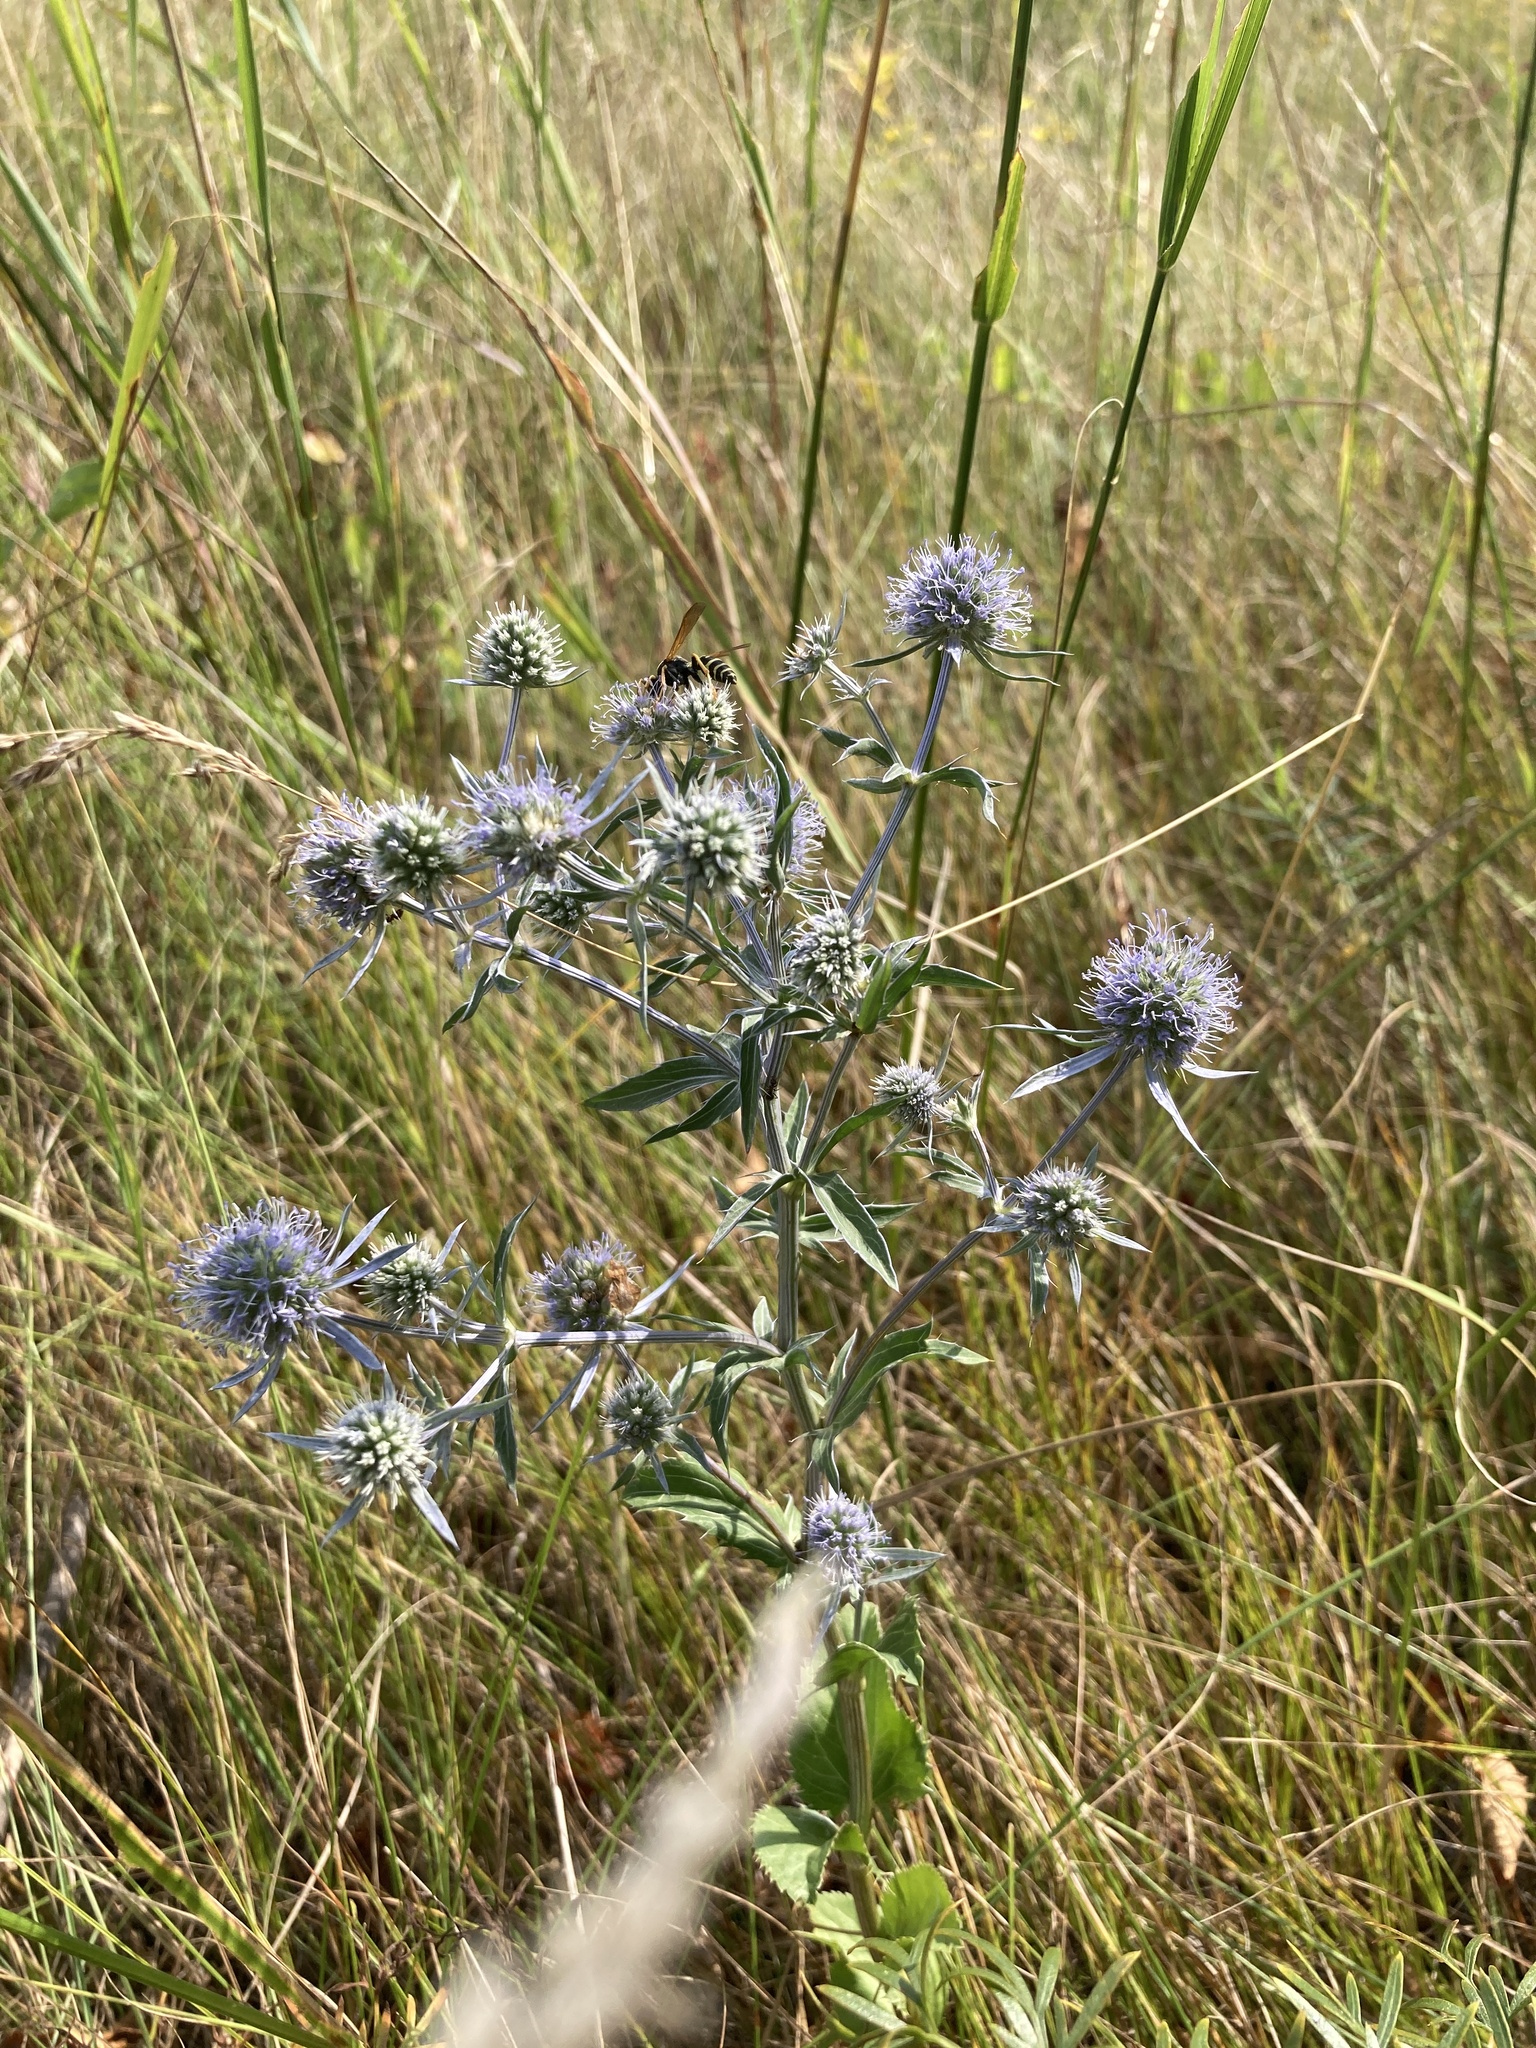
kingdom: Plantae
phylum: Tracheophyta
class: Magnoliopsida
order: Apiales
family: Apiaceae
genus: Eryngium
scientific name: Eryngium planum
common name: Blue eryngo
